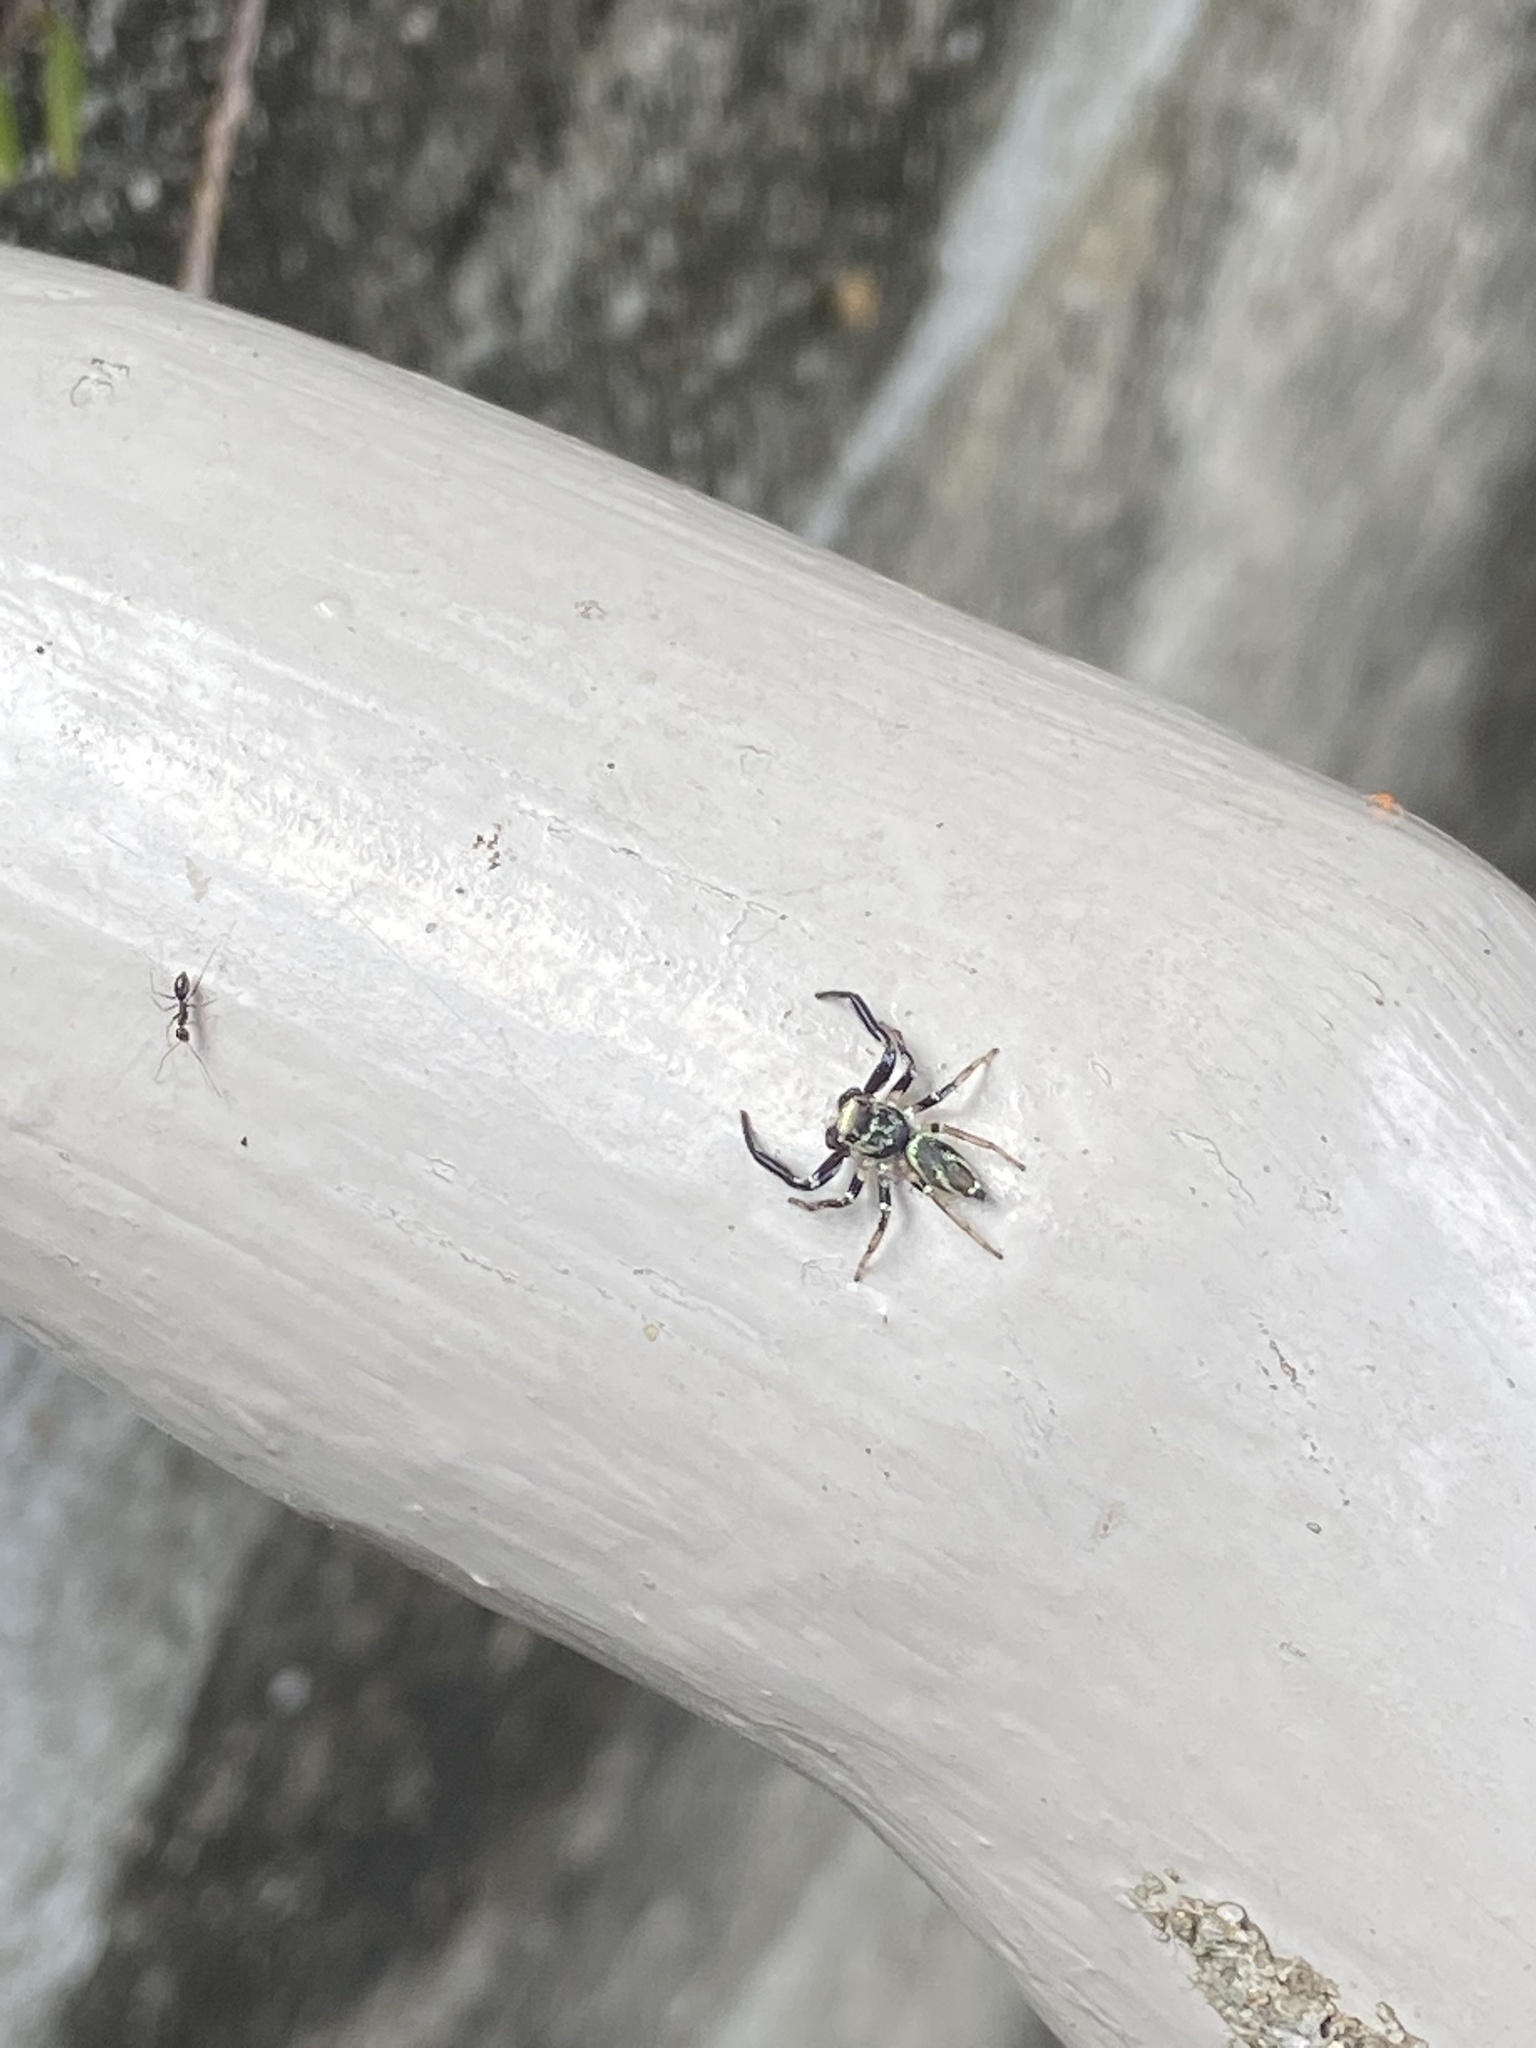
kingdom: Animalia
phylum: Arthropoda
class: Arachnida
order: Araneae
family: Salticidae
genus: Thiania
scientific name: Thiania suboppressa
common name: Jumping spider
